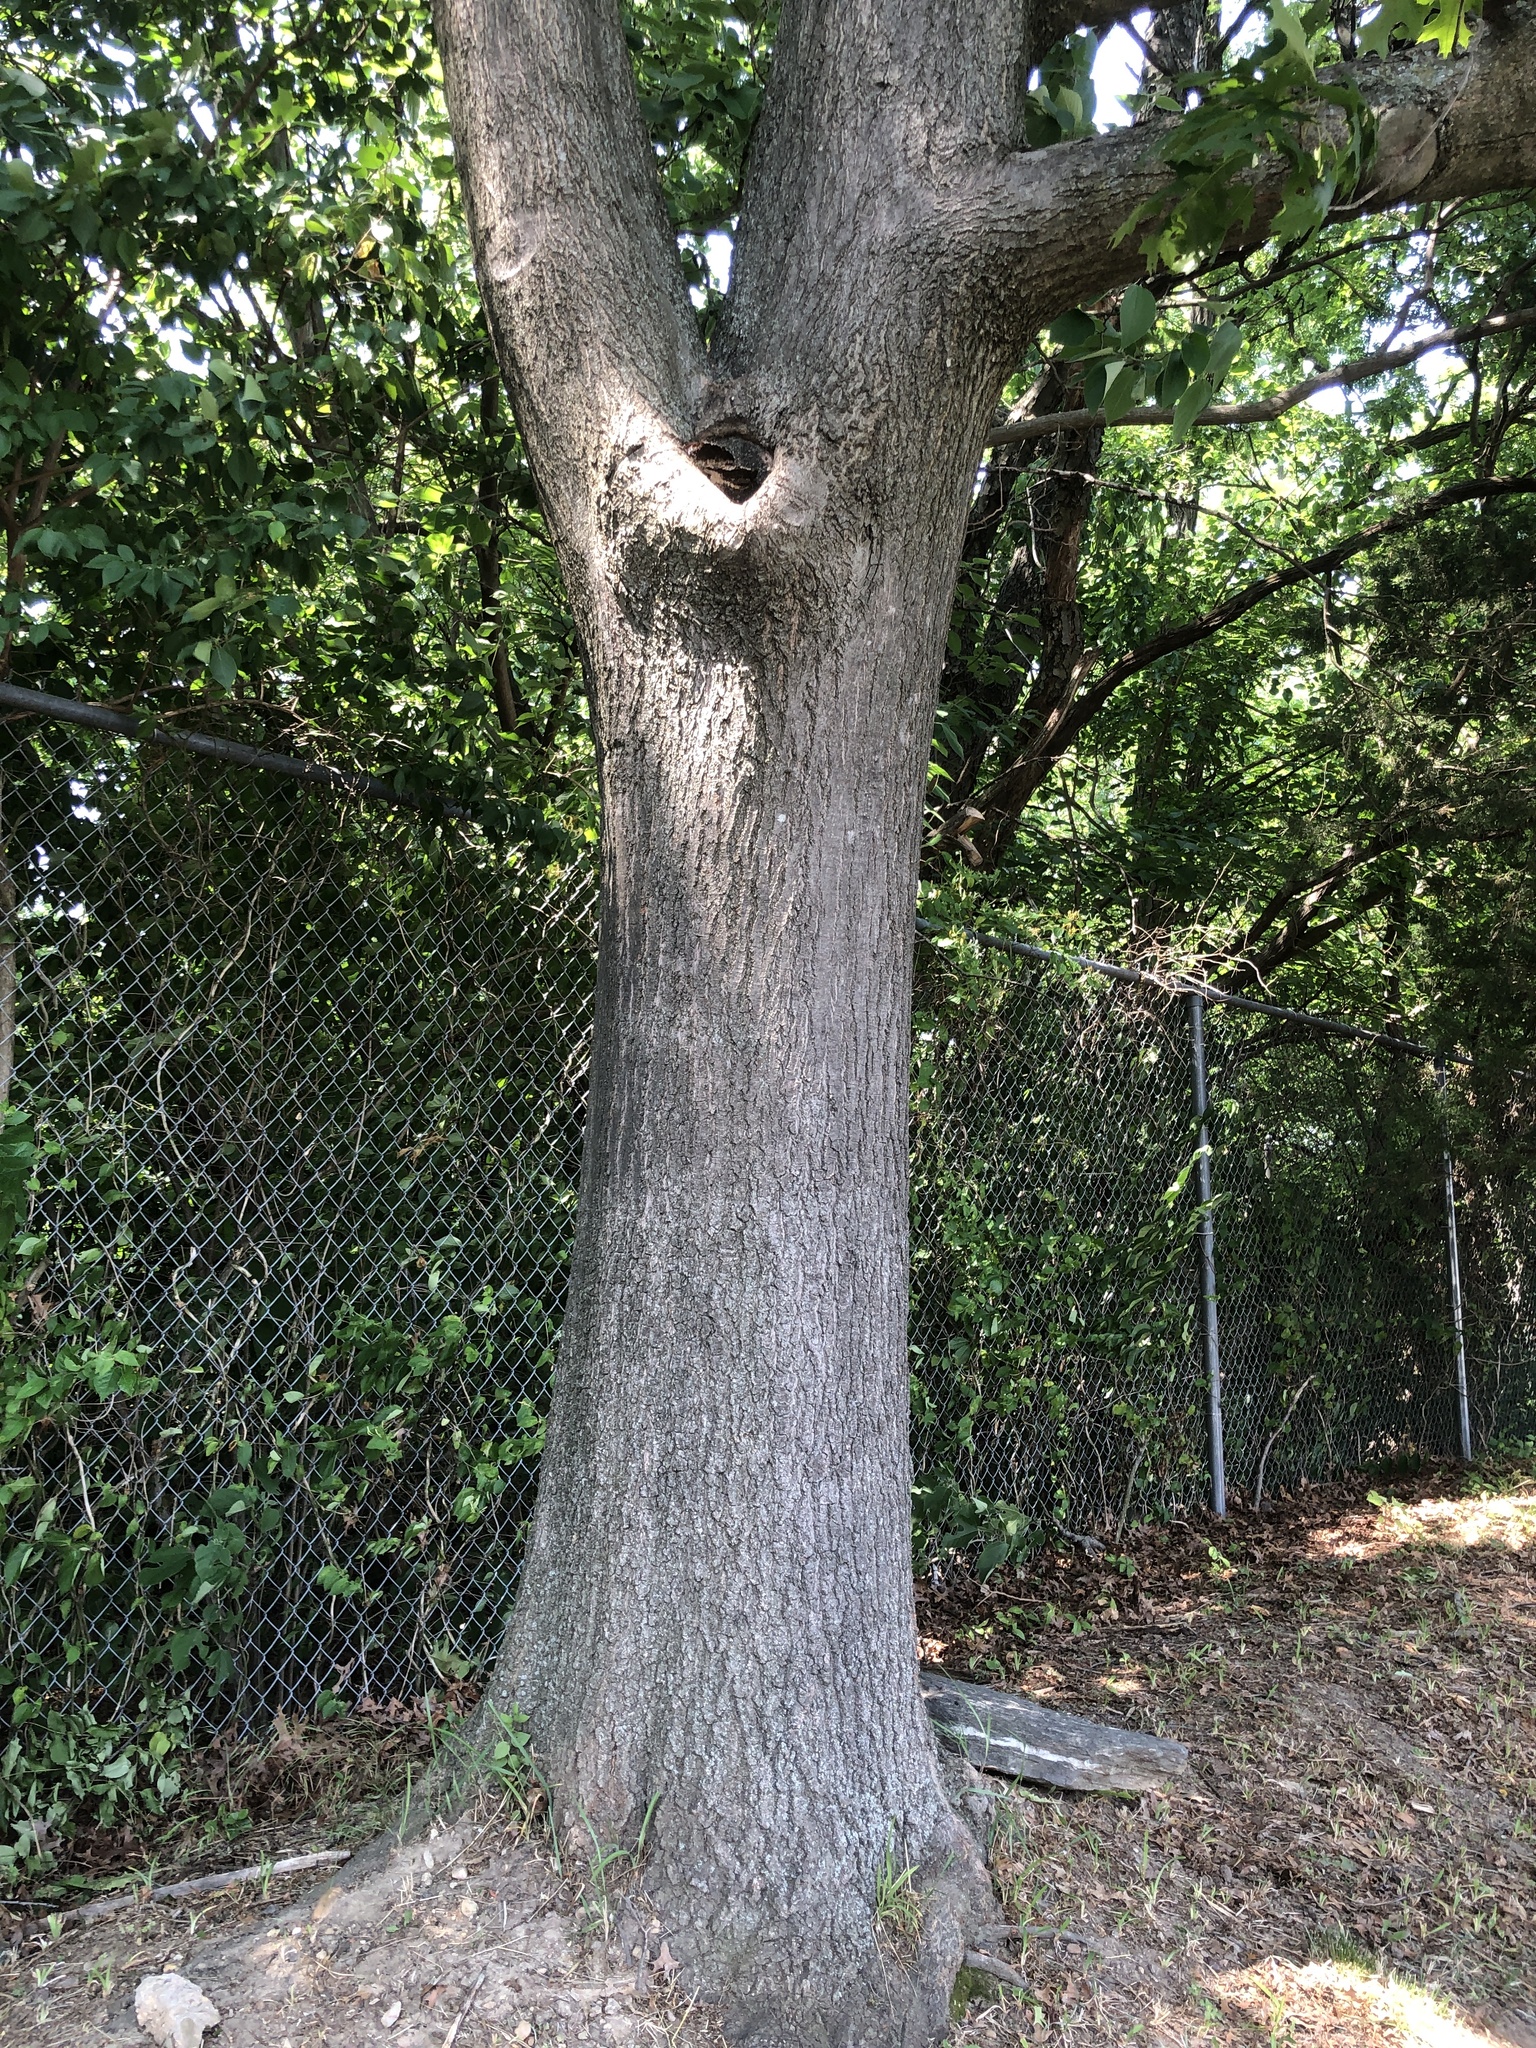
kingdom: Plantae
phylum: Tracheophyta
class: Magnoliopsida
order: Fagales
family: Fagaceae
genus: Quercus
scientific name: Quercus coccinea
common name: Scarlet oak
